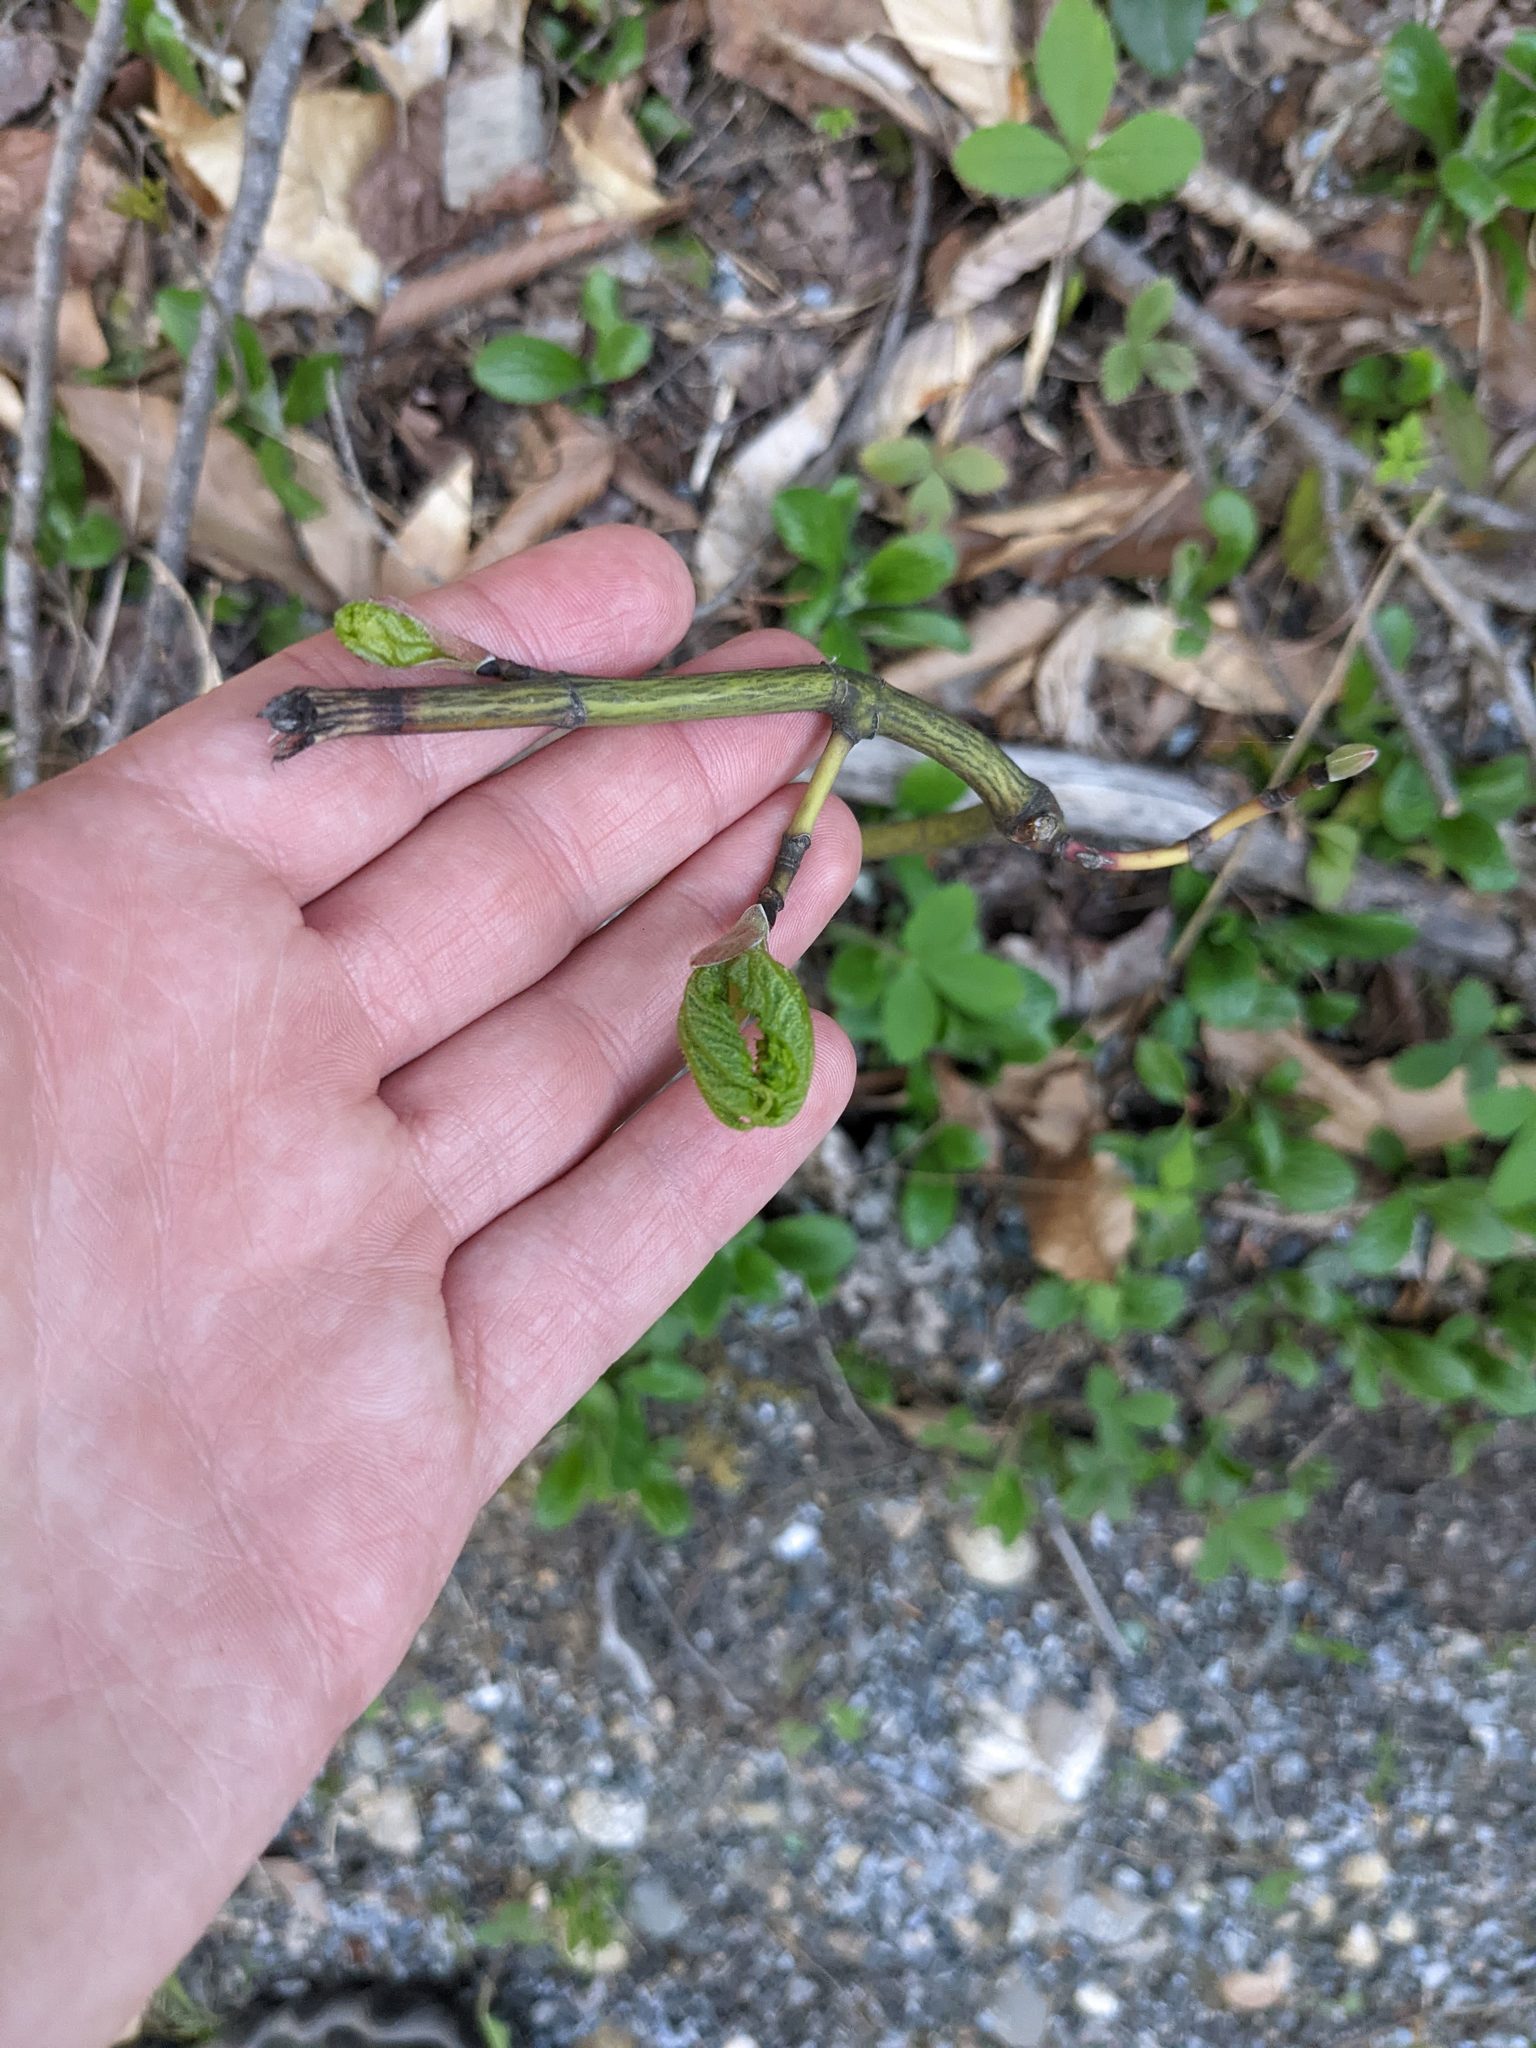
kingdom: Plantae
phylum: Tracheophyta
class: Magnoliopsida
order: Sapindales
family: Sapindaceae
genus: Acer
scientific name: Acer pensylvanicum
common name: Moosewood
